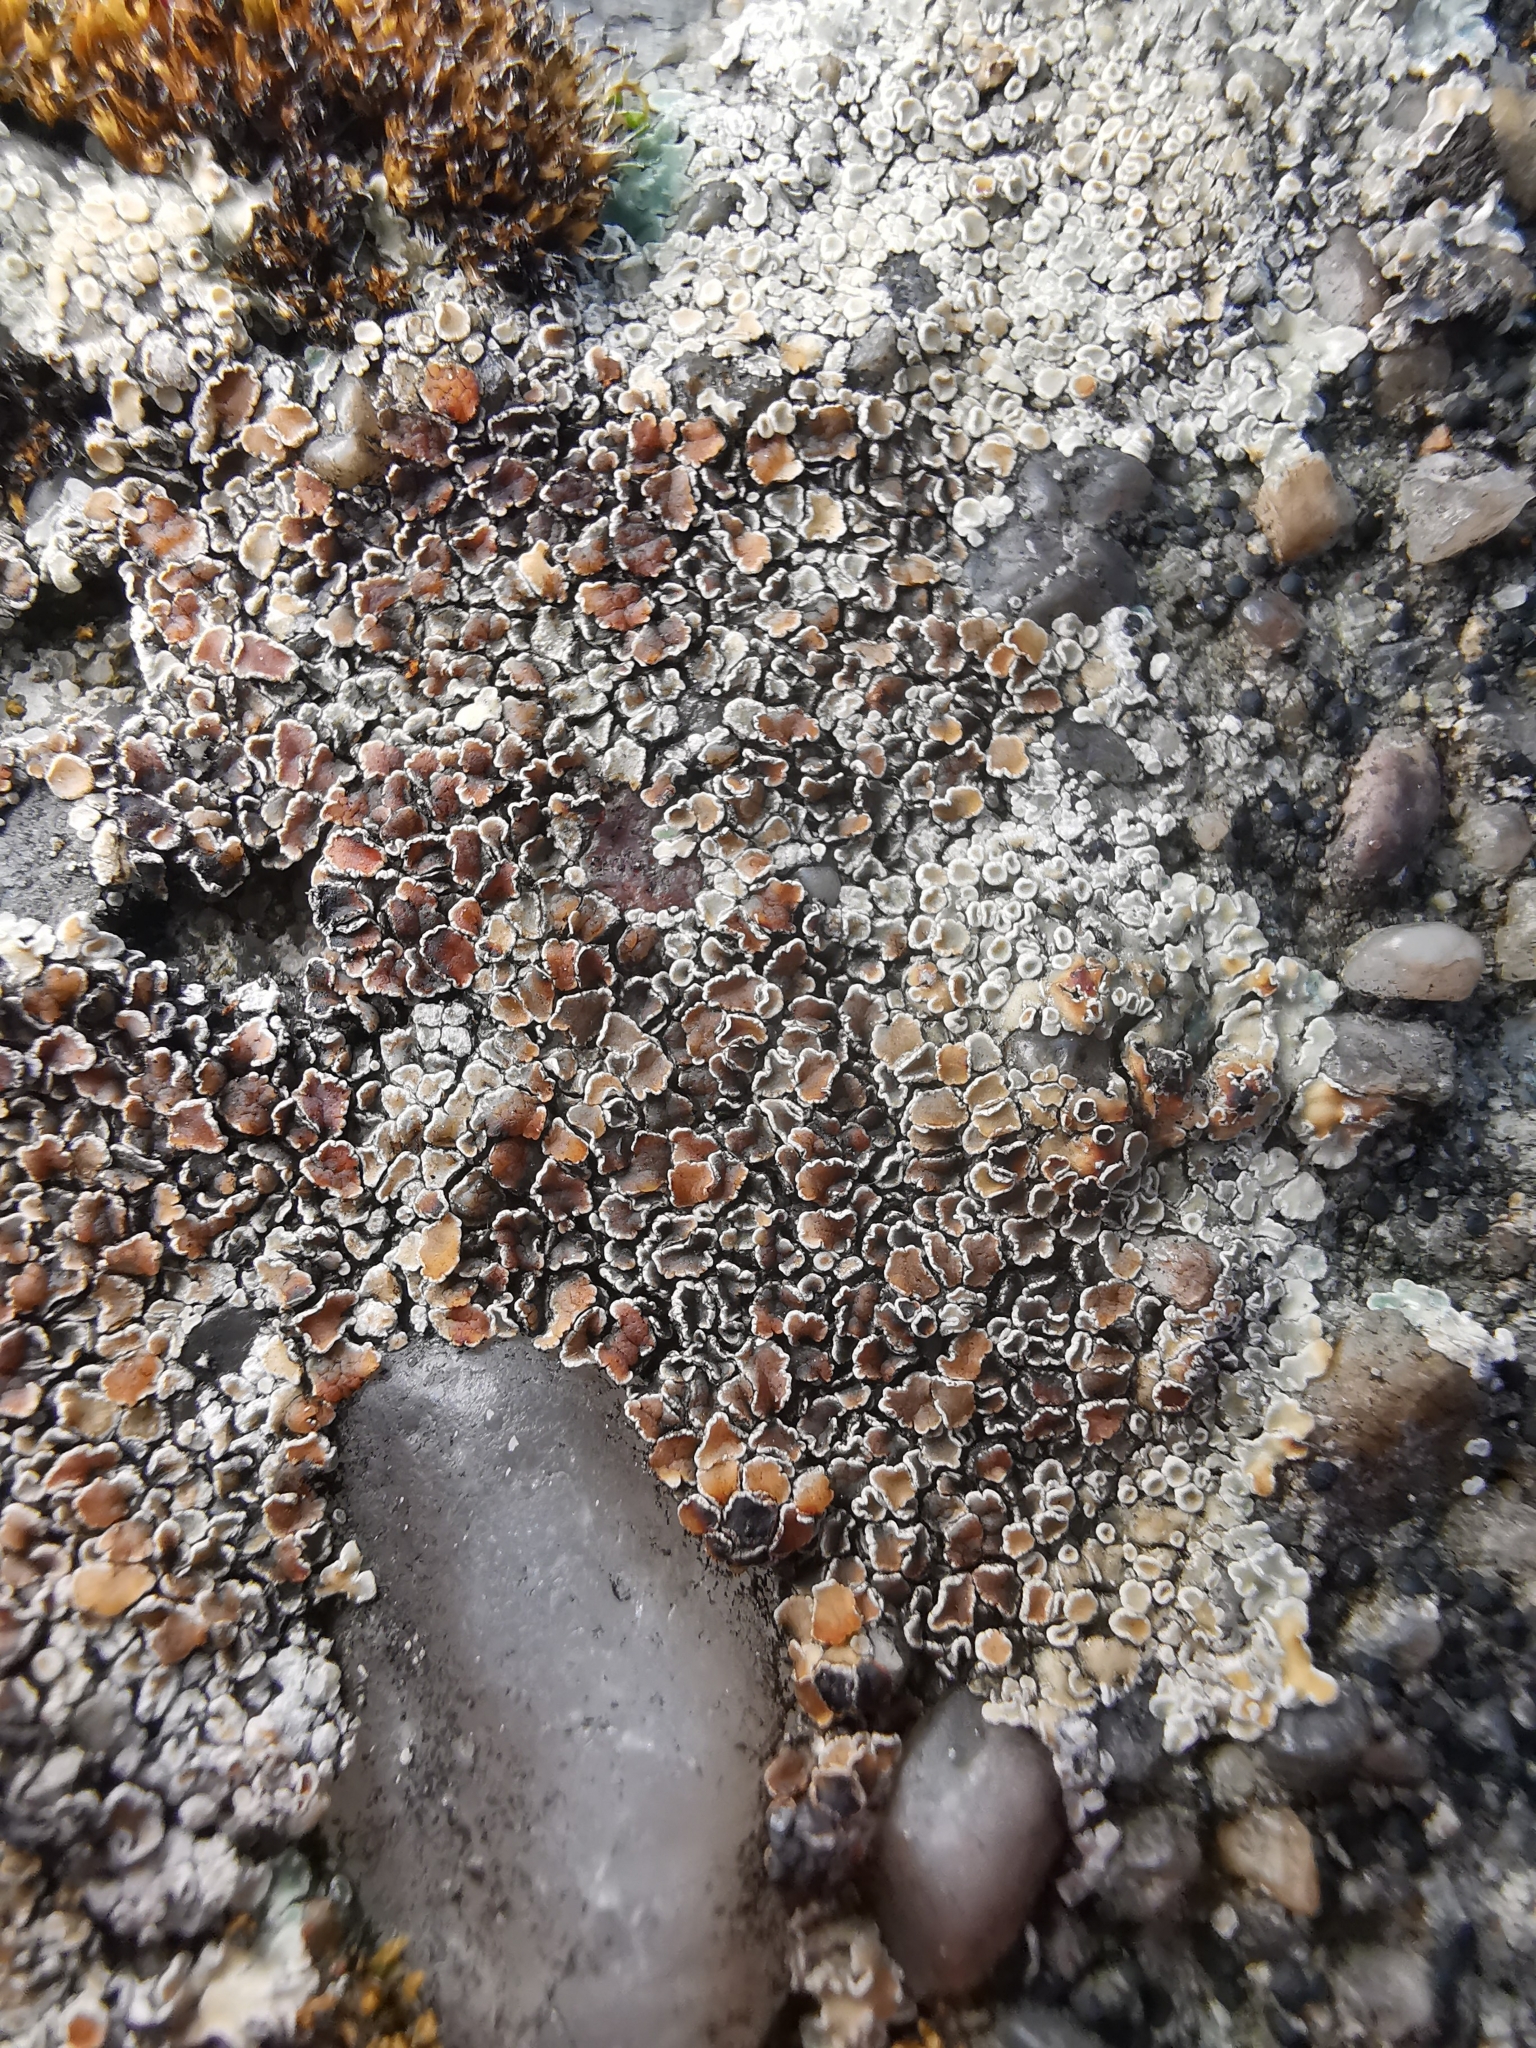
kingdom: Fungi
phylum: Ascomycota
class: Lecanoromycetes
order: Lecanorales
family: Lecanoraceae
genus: Protoparmeliopsis
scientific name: Protoparmeliopsis muralis
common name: Stonewall rim lichen
